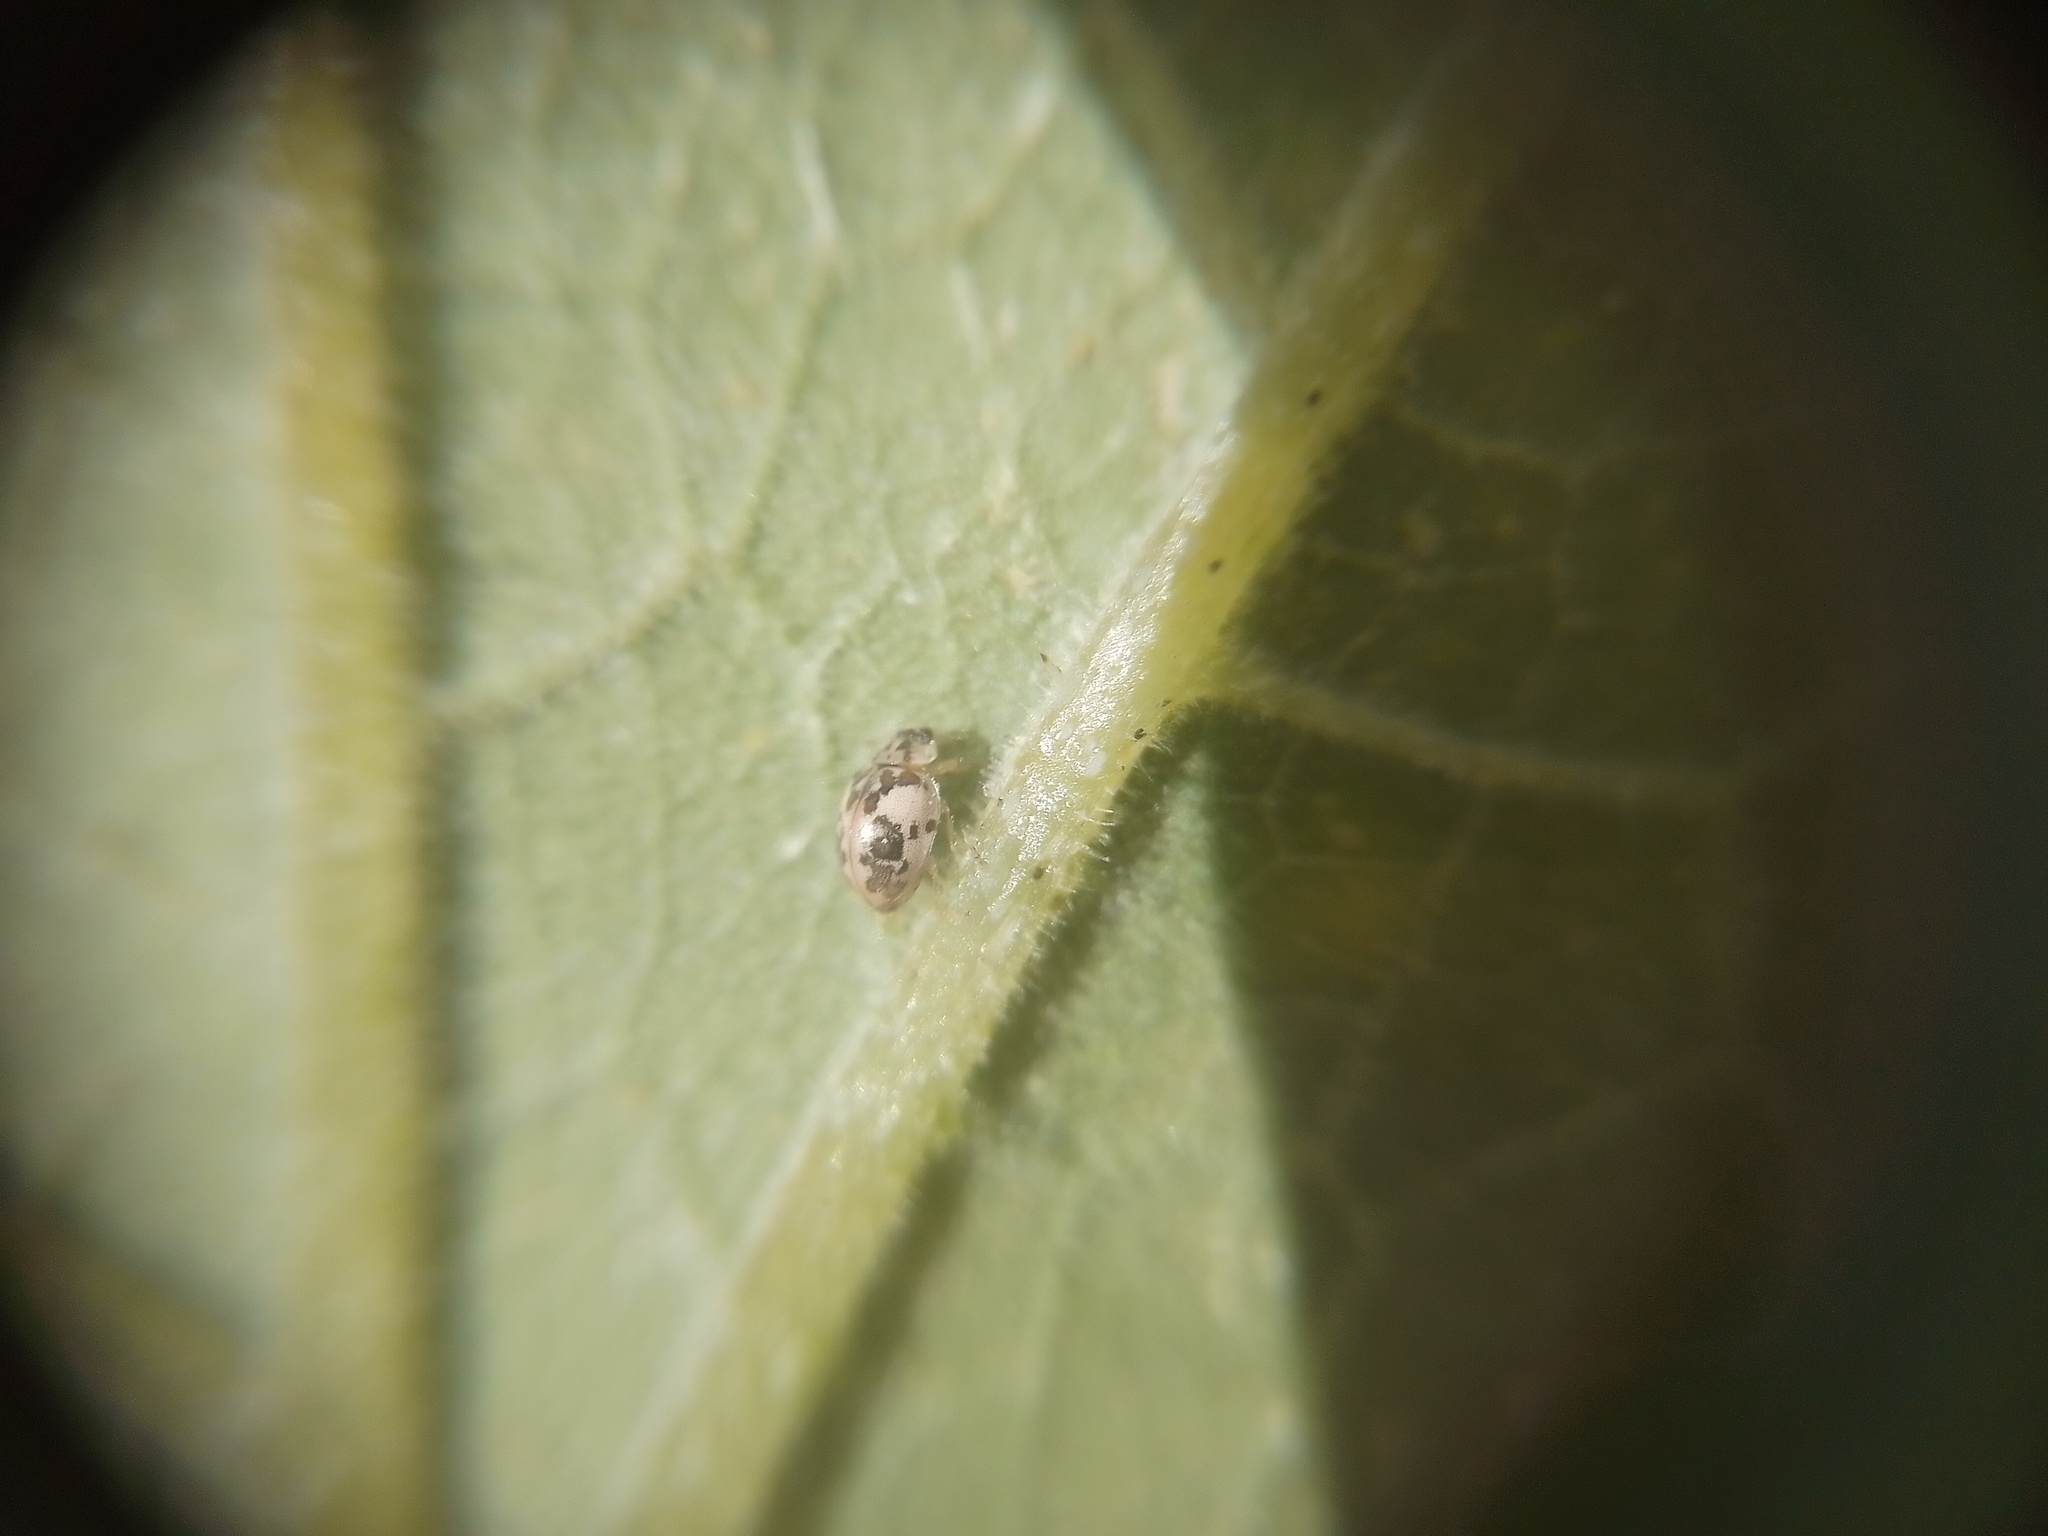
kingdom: Animalia
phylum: Arthropoda
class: Insecta
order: Coleoptera
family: Coccinellidae
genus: Psyllobora
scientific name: Psyllobora
